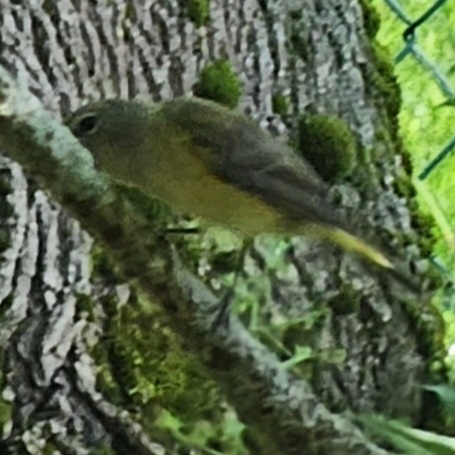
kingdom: Animalia
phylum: Chordata
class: Aves
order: Passeriformes
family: Parulidae
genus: Setophaga
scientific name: Setophaga ruticilla
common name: American redstart
